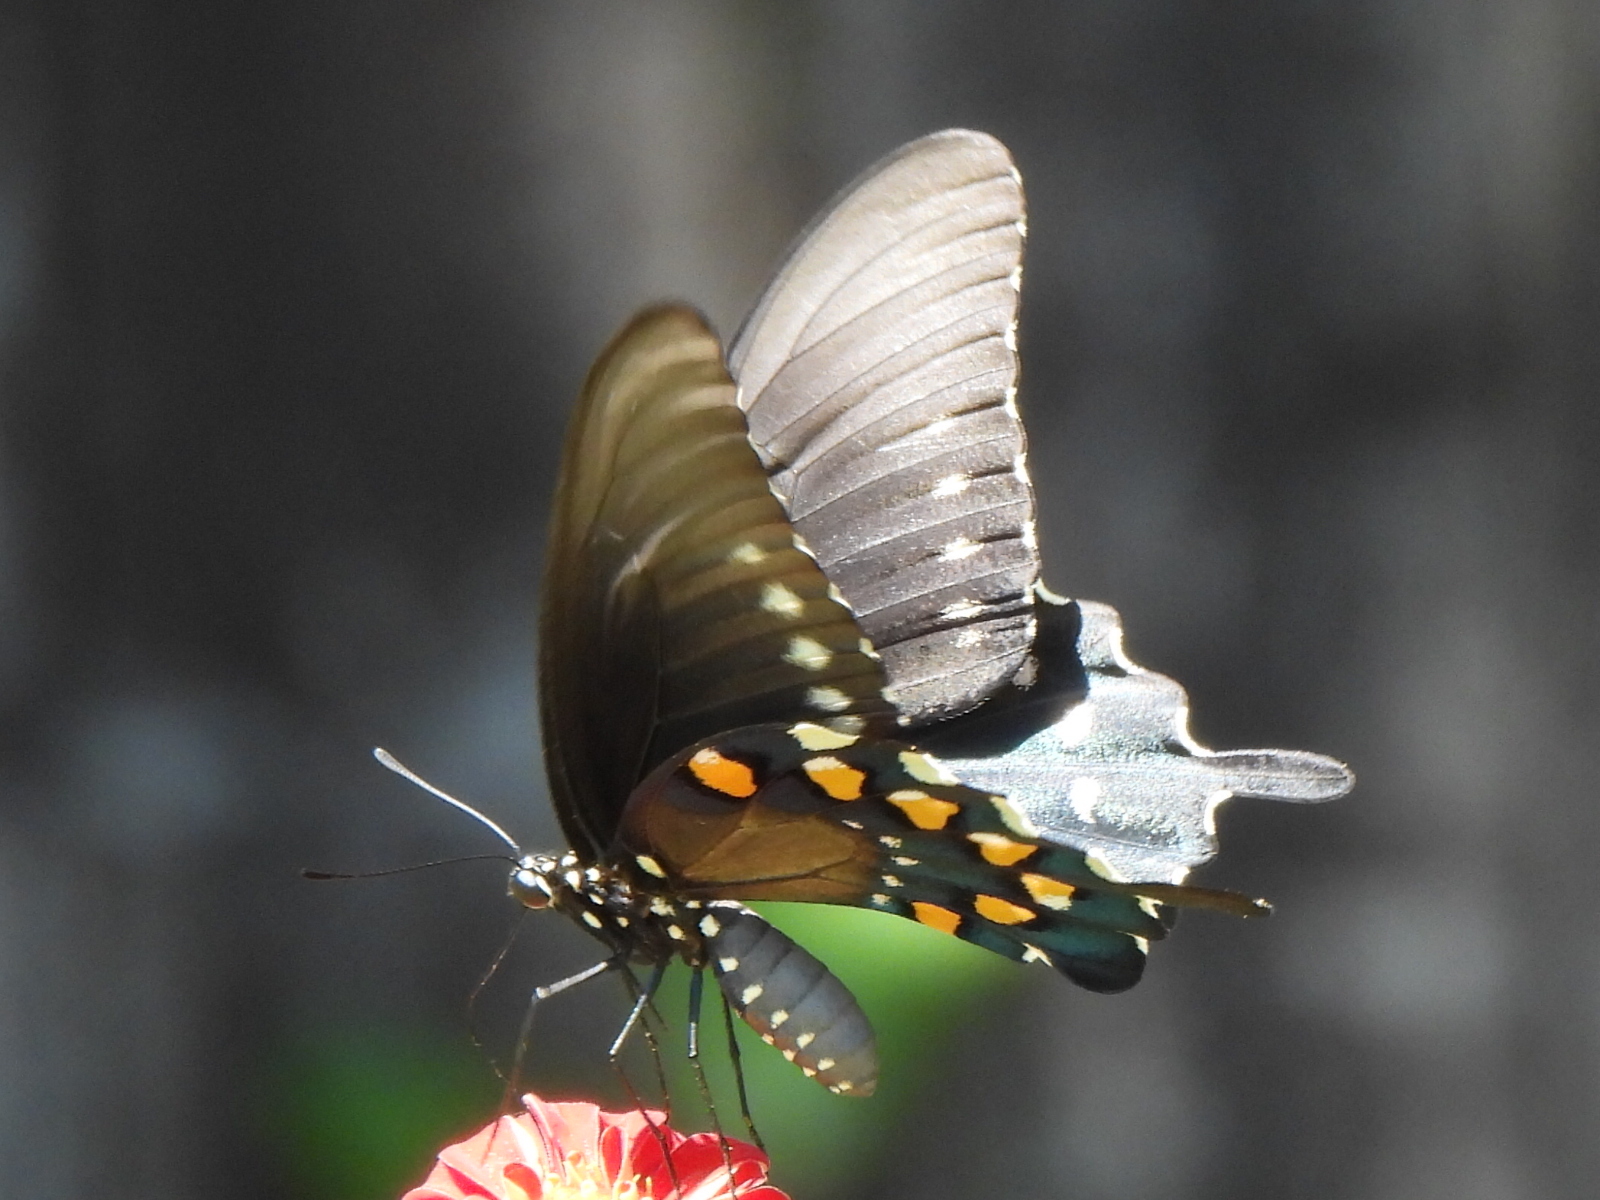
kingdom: Animalia
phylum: Arthropoda
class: Insecta
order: Lepidoptera
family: Papilionidae
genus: Battus
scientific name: Battus philenor
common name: Pipevine swallowtail
